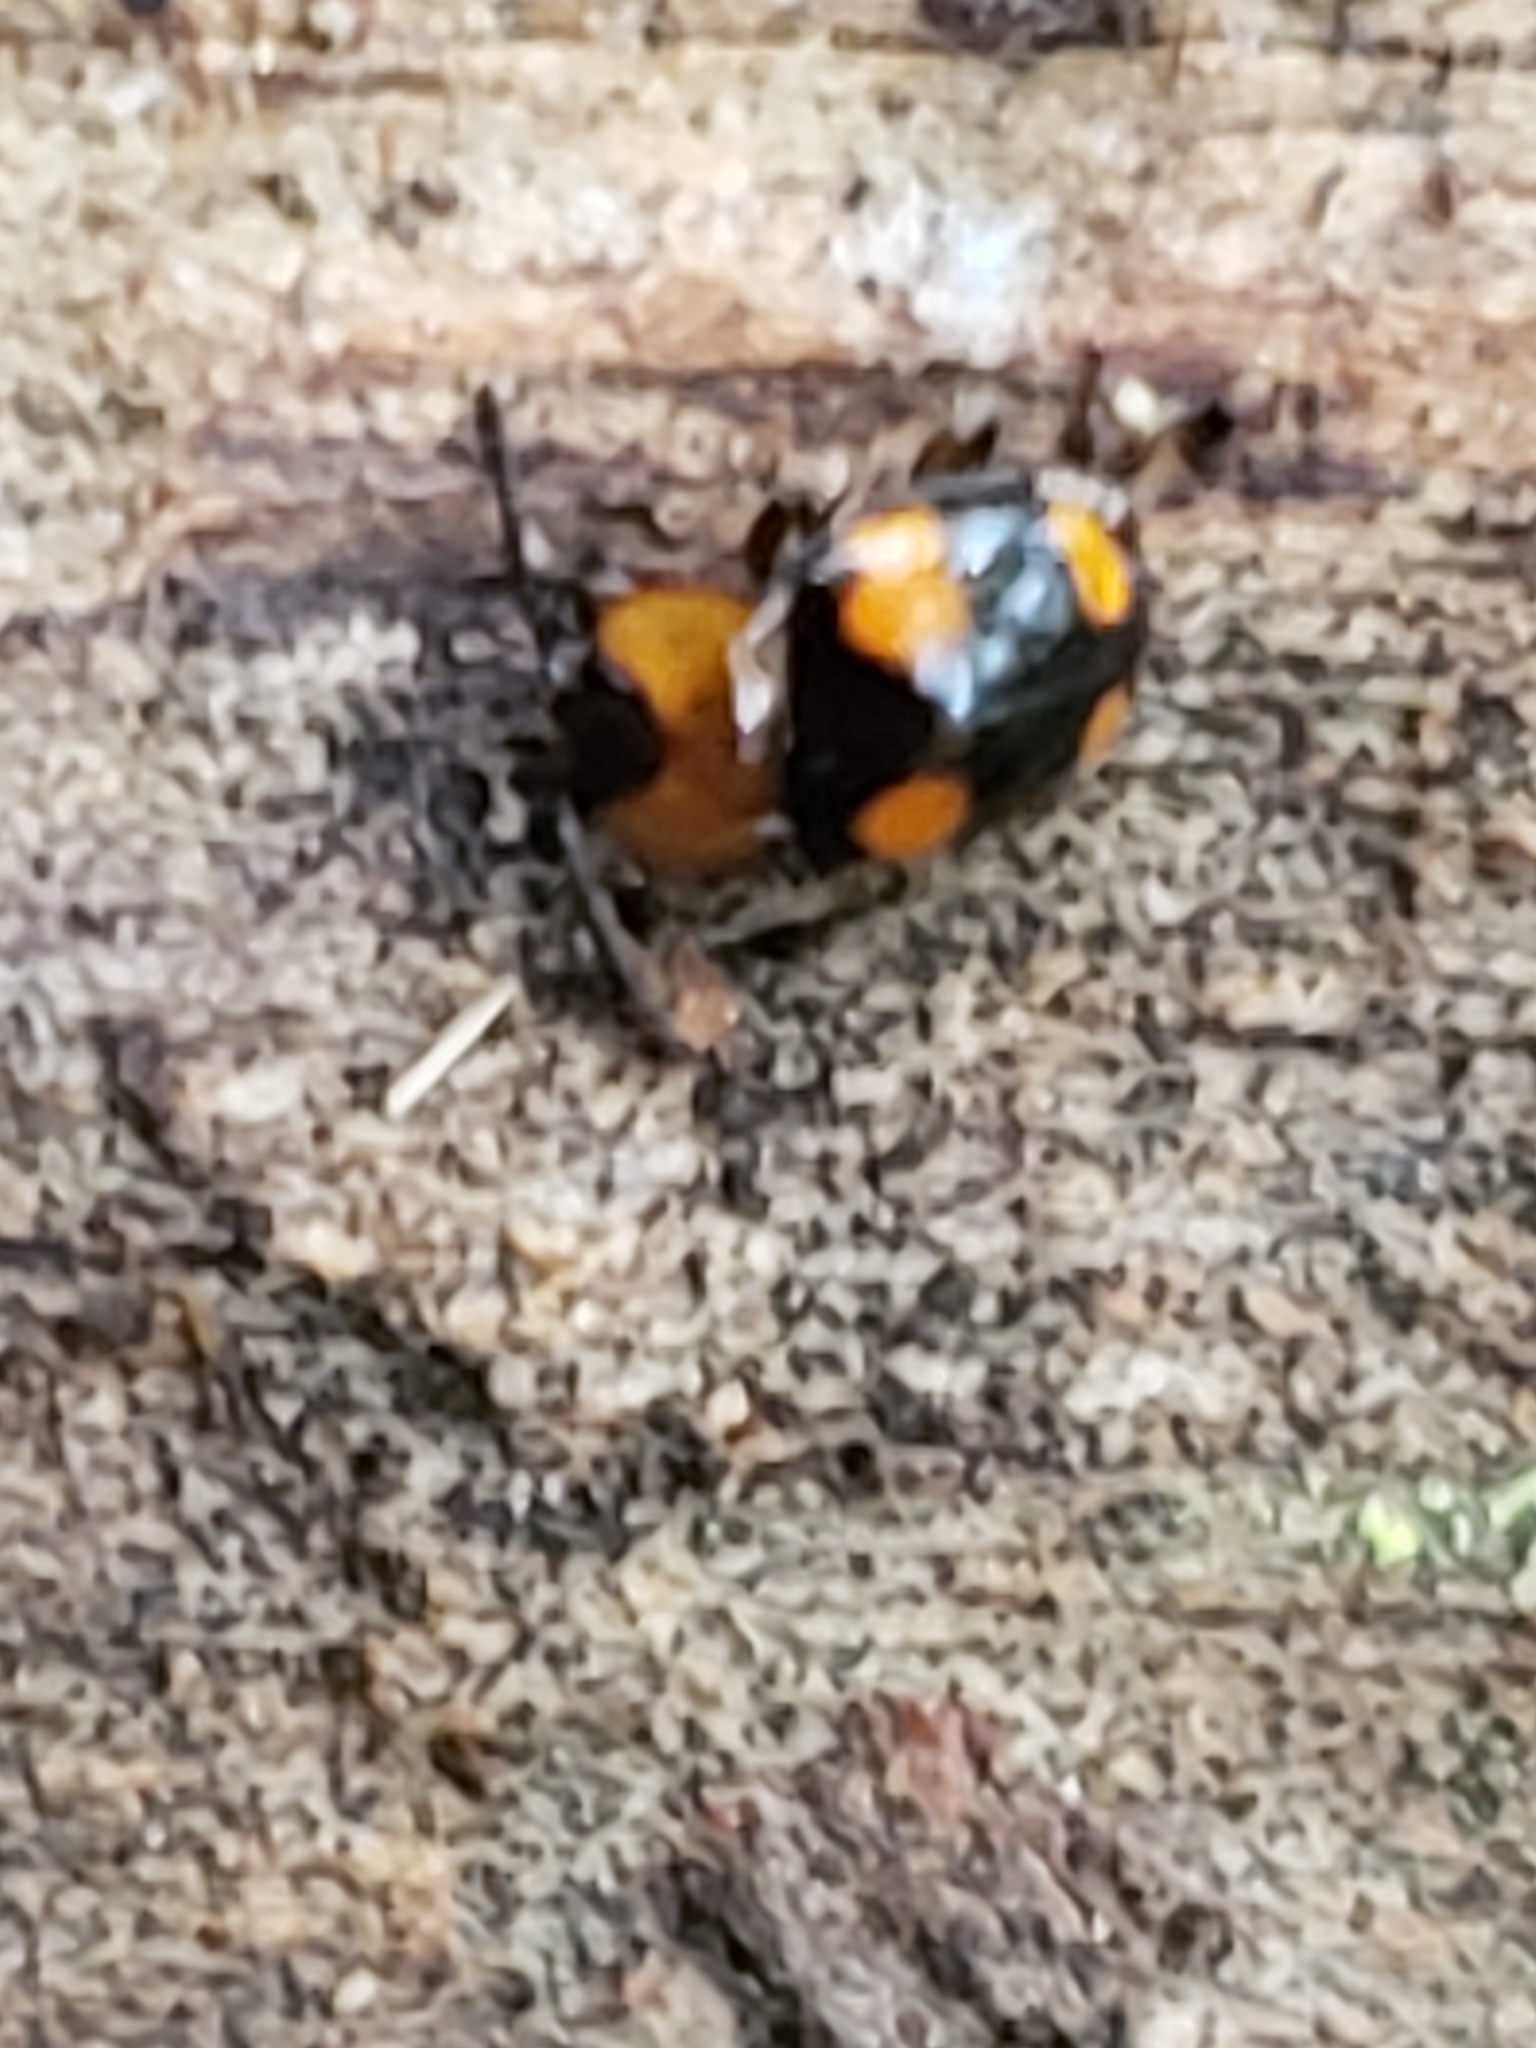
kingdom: Animalia
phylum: Arthropoda
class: Insecta
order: Coleoptera
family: Endomychidae
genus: Mycetina
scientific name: Mycetina perpulchra
